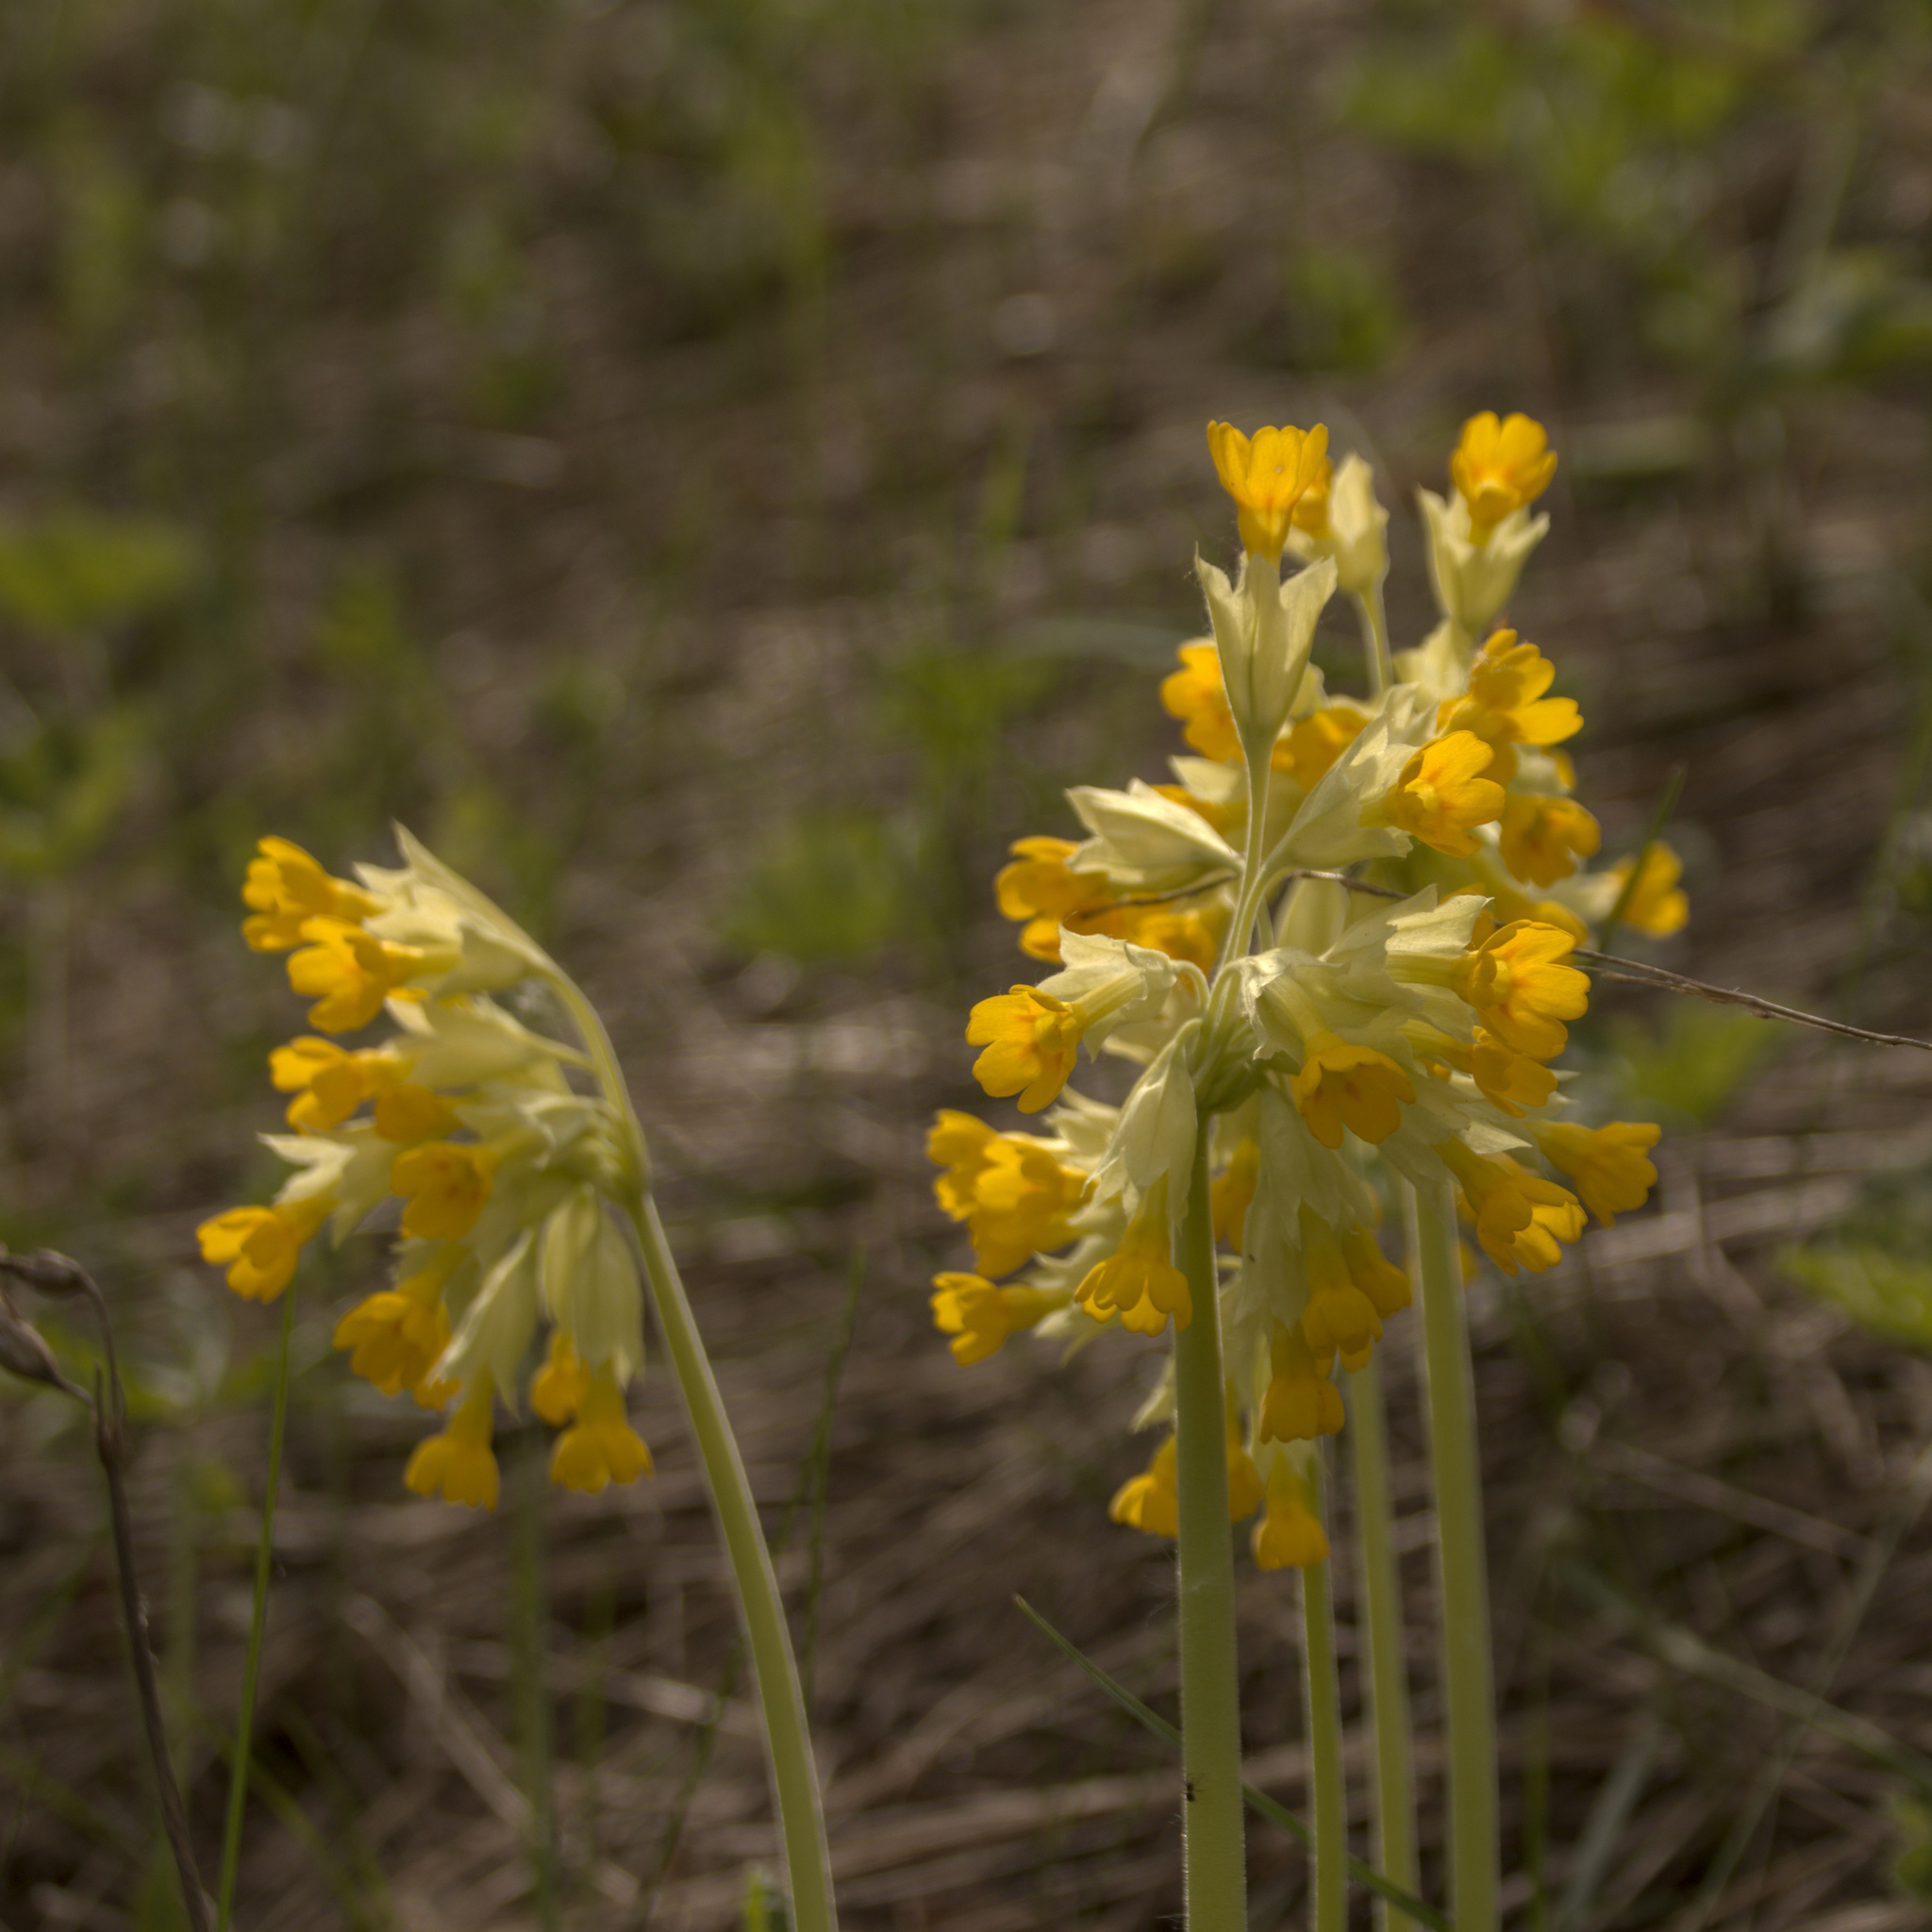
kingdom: Plantae
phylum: Tracheophyta
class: Magnoliopsida
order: Ericales
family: Primulaceae
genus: Primula
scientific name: Primula veris
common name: Cowslip
